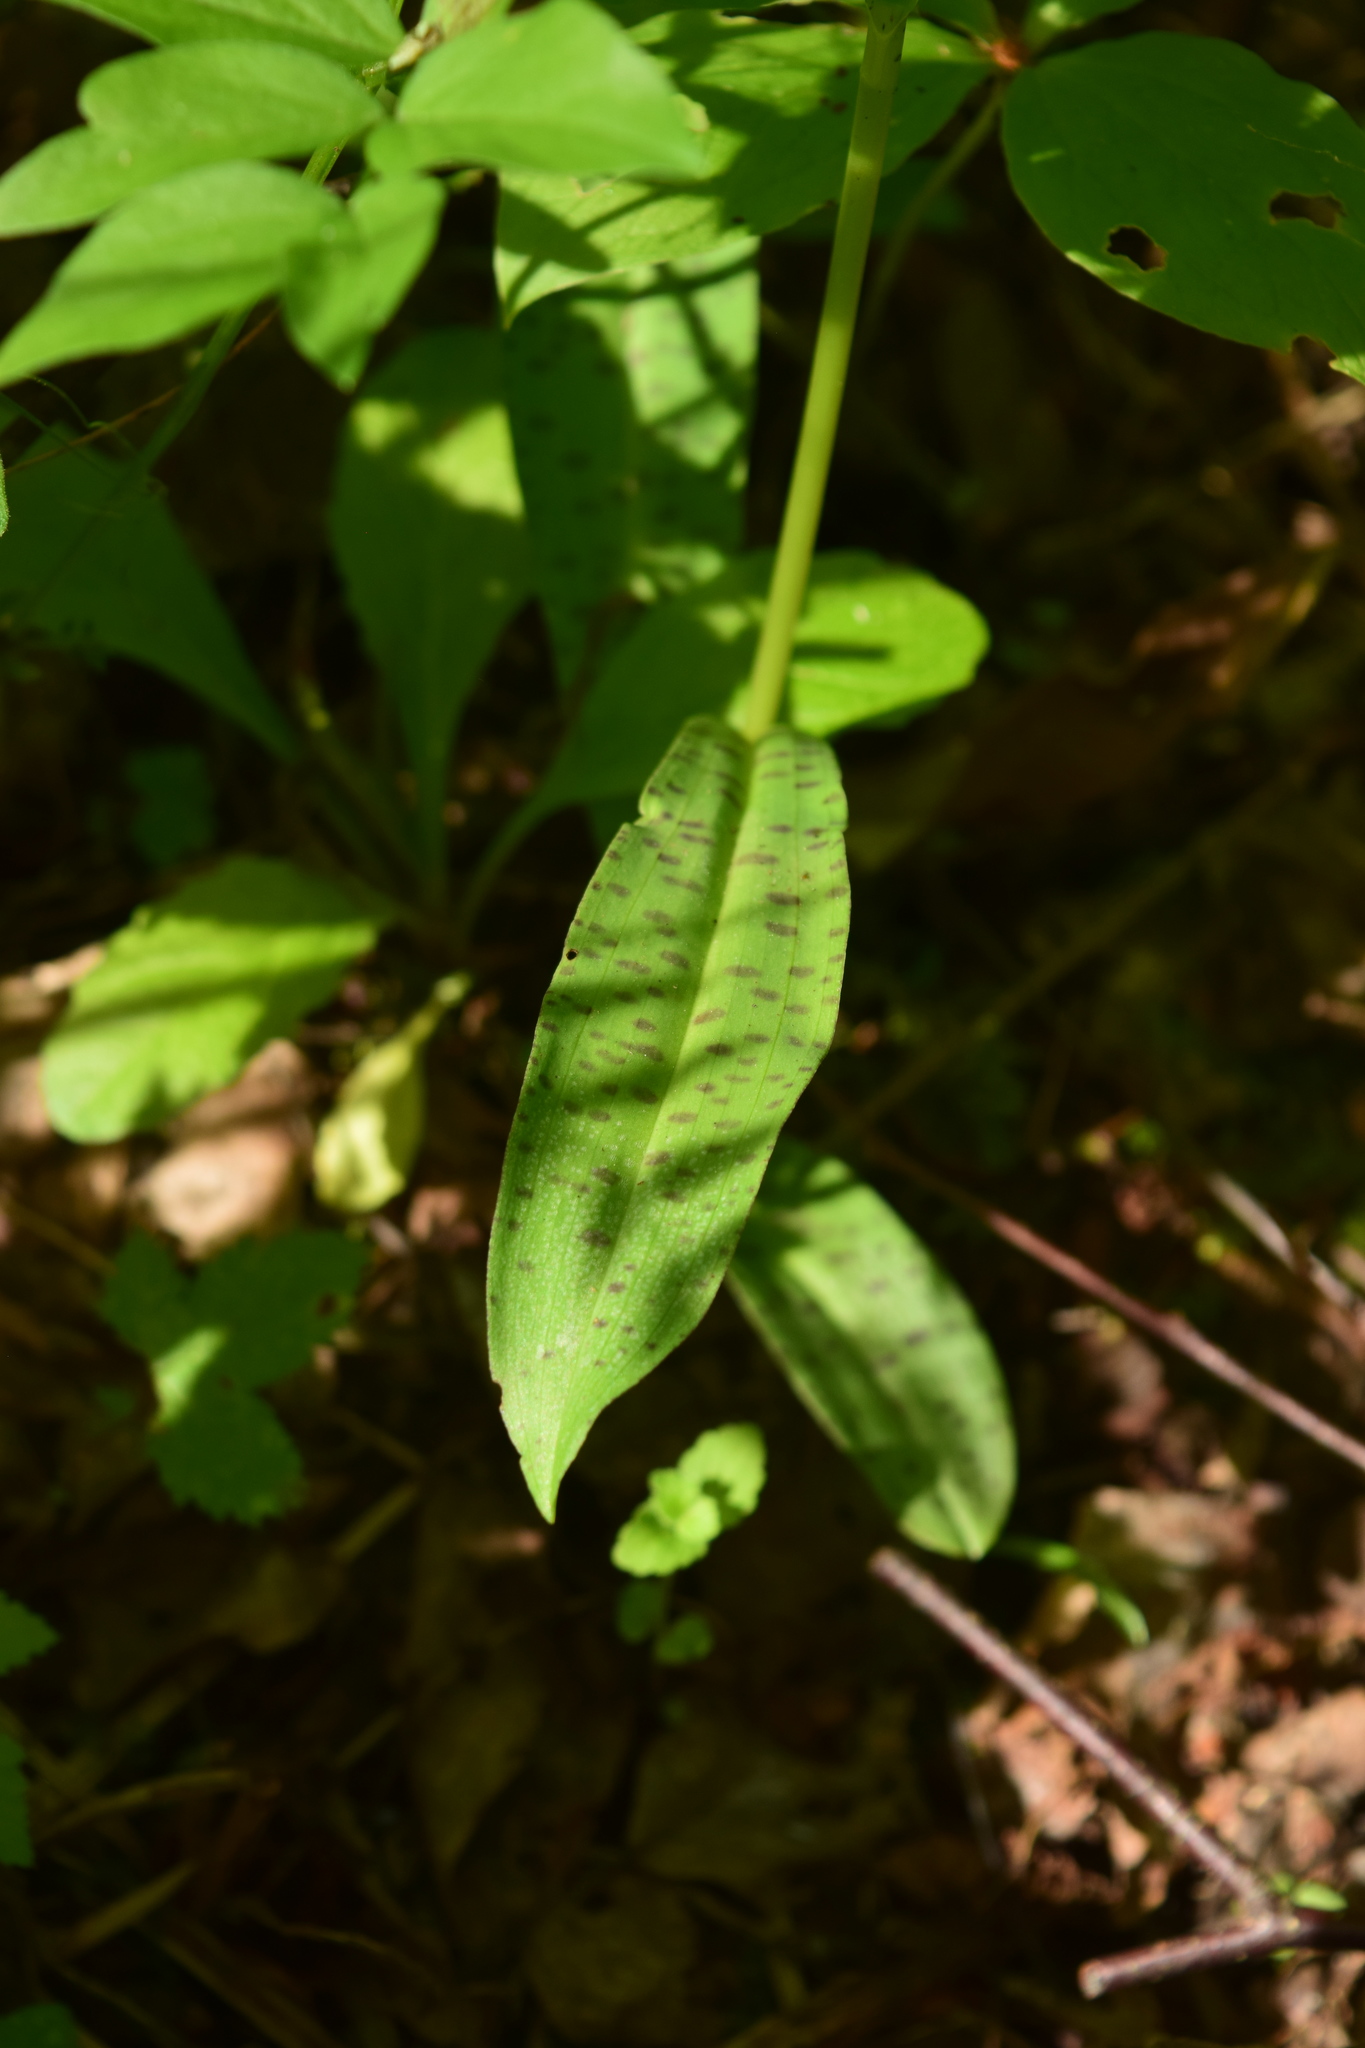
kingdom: Plantae
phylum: Tracheophyta
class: Liliopsida
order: Asparagales
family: Orchidaceae
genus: Dactylorhiza
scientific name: Dactylorhiza maculata
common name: Heath spotted-orchid
